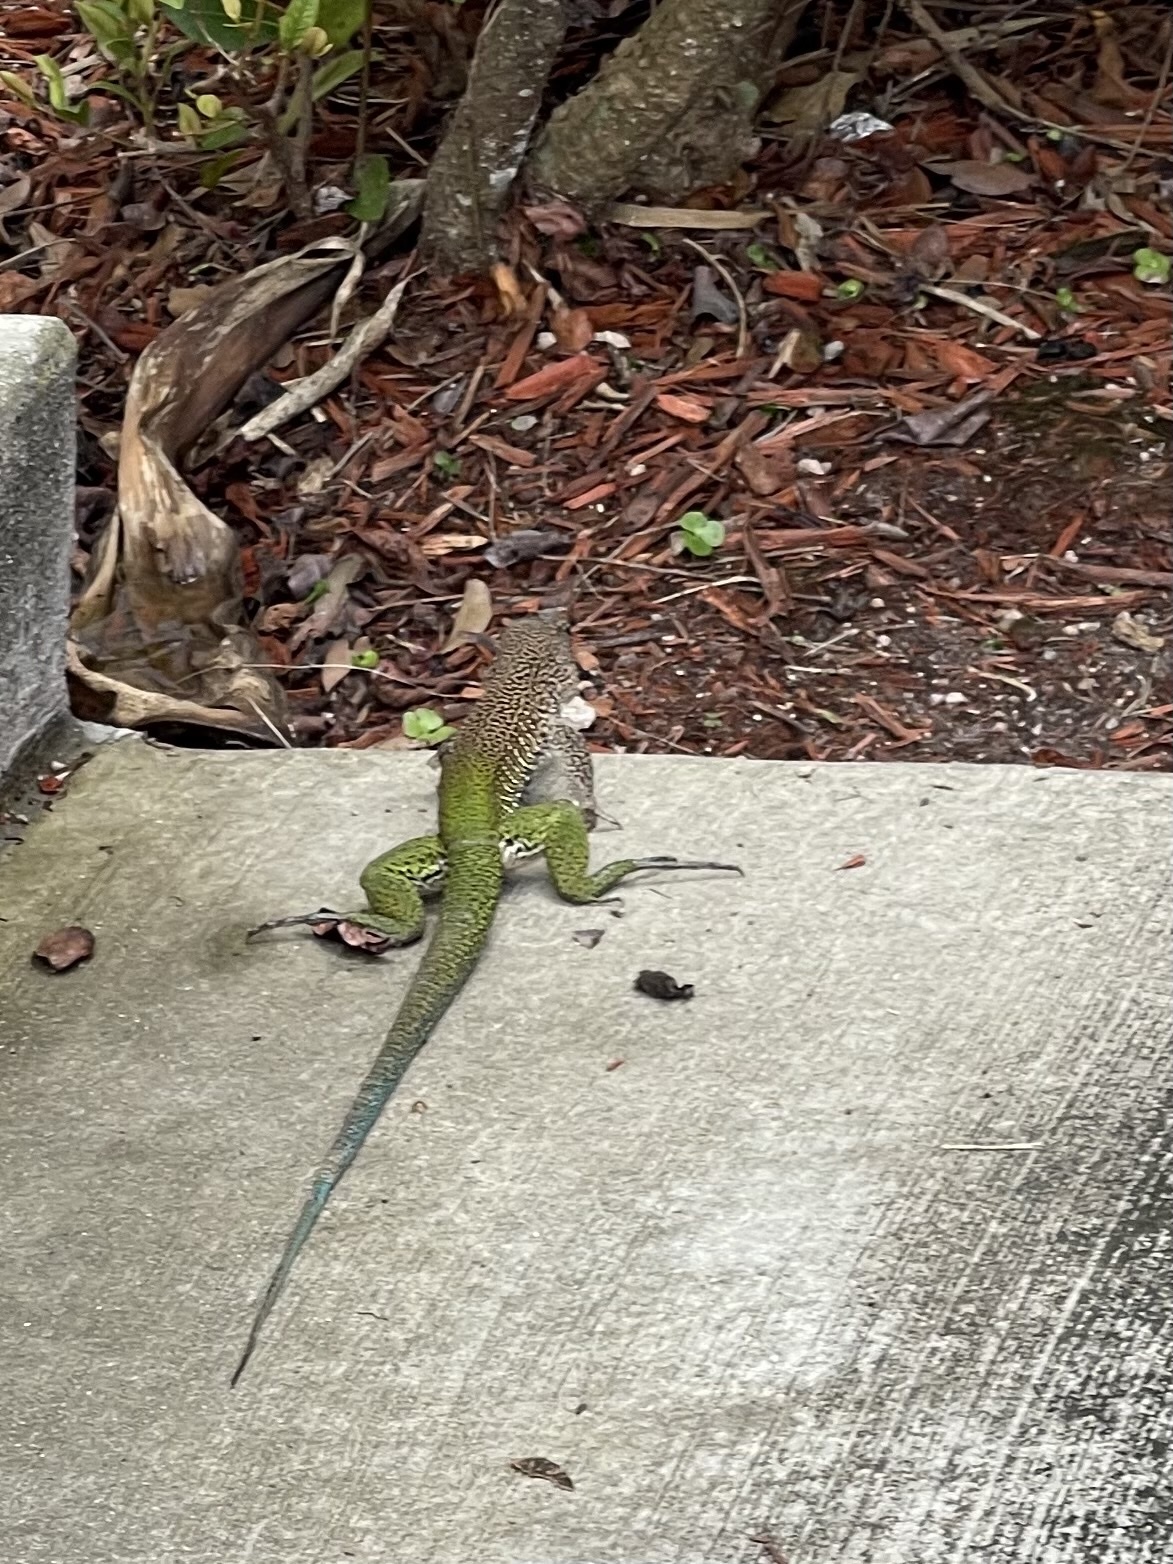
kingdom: Animalia
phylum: Chordata
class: Squamata
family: Teiidae
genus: Ameiva
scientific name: Ameiva ameiva
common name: Giant ameiva
